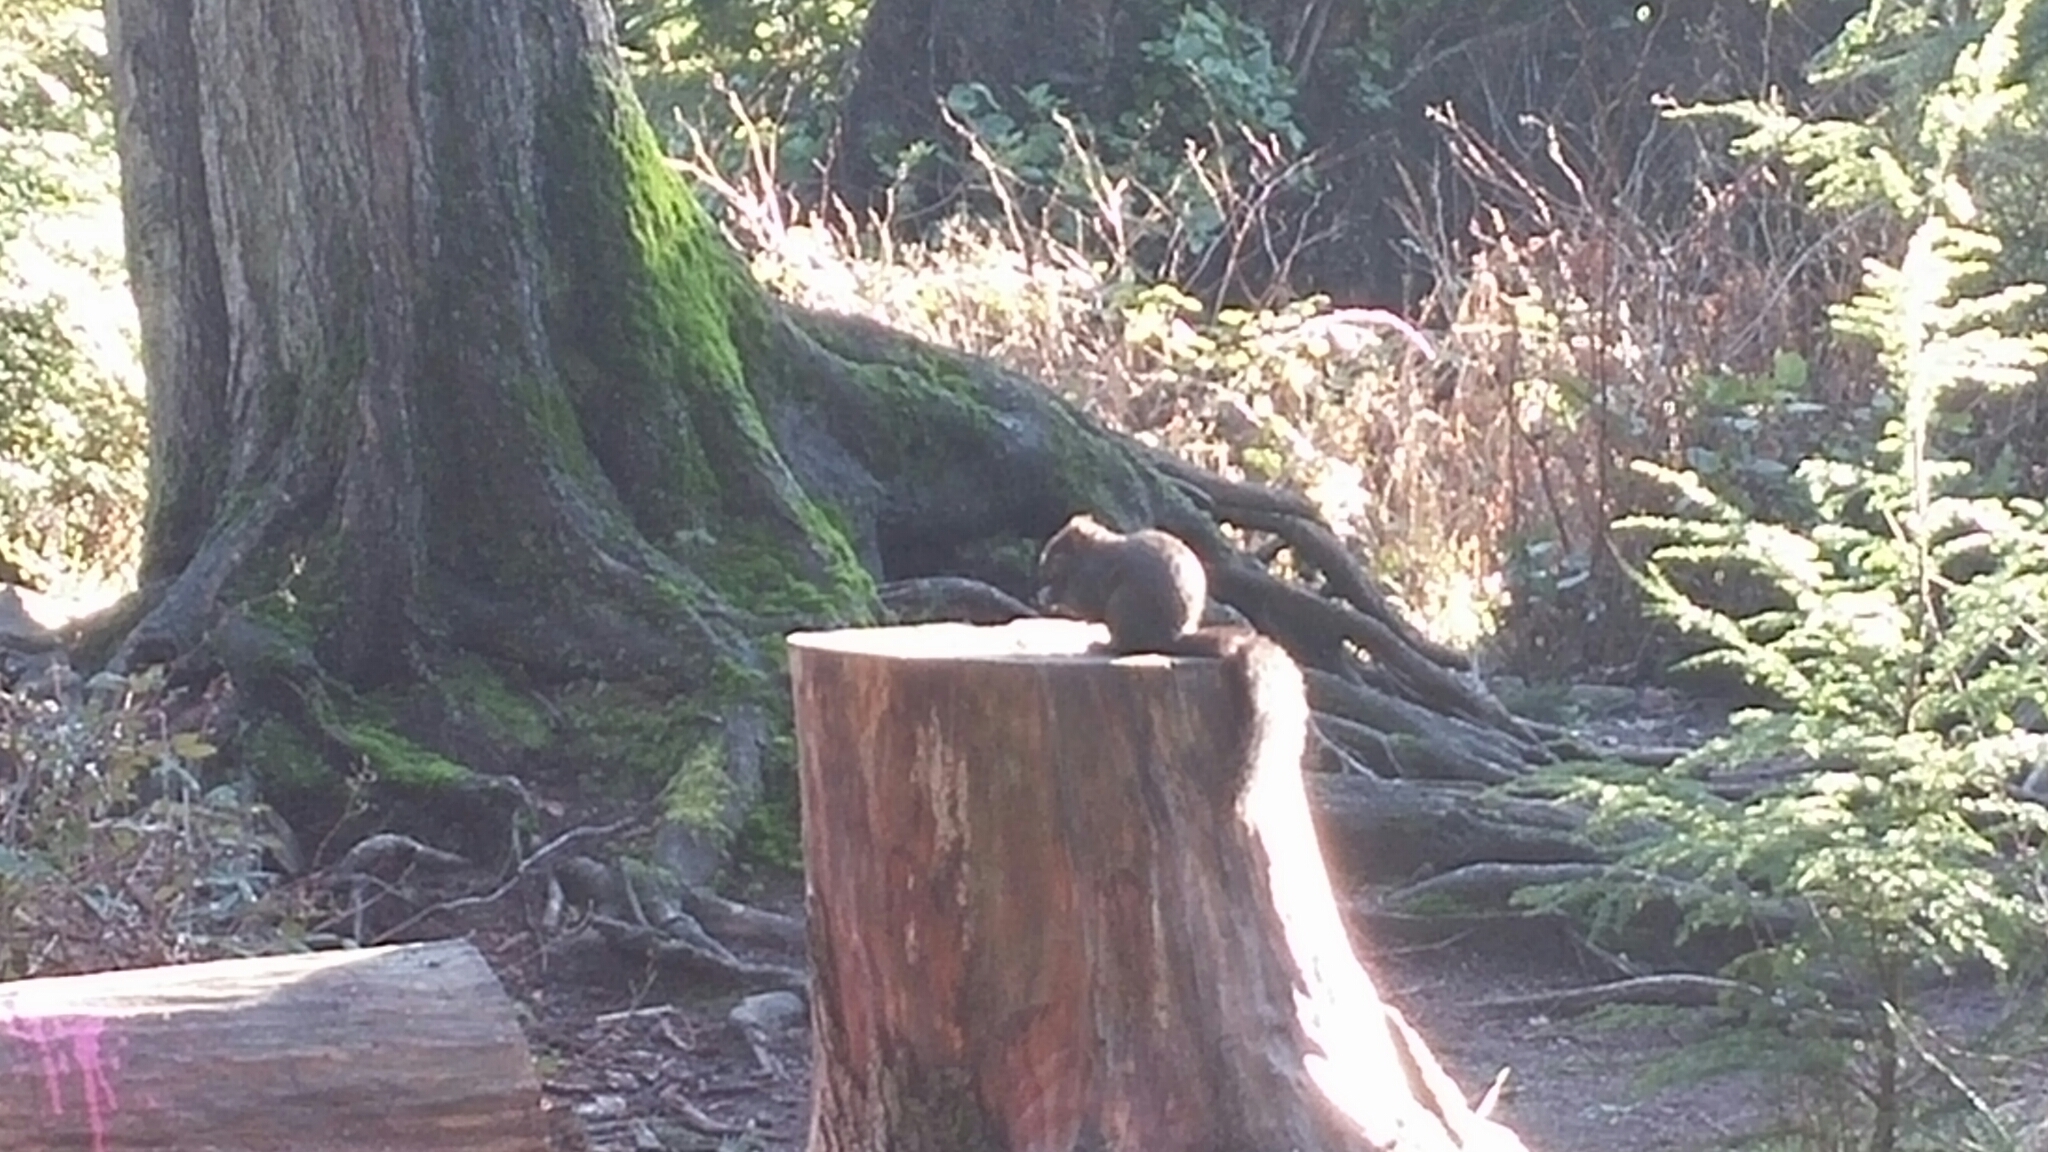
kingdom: Animalia
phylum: Chordata
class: Mammalia
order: Rodentia
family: Sciuridae
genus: Sciurus
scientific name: Sciurus carolinensis
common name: Eastern gray squirrel
